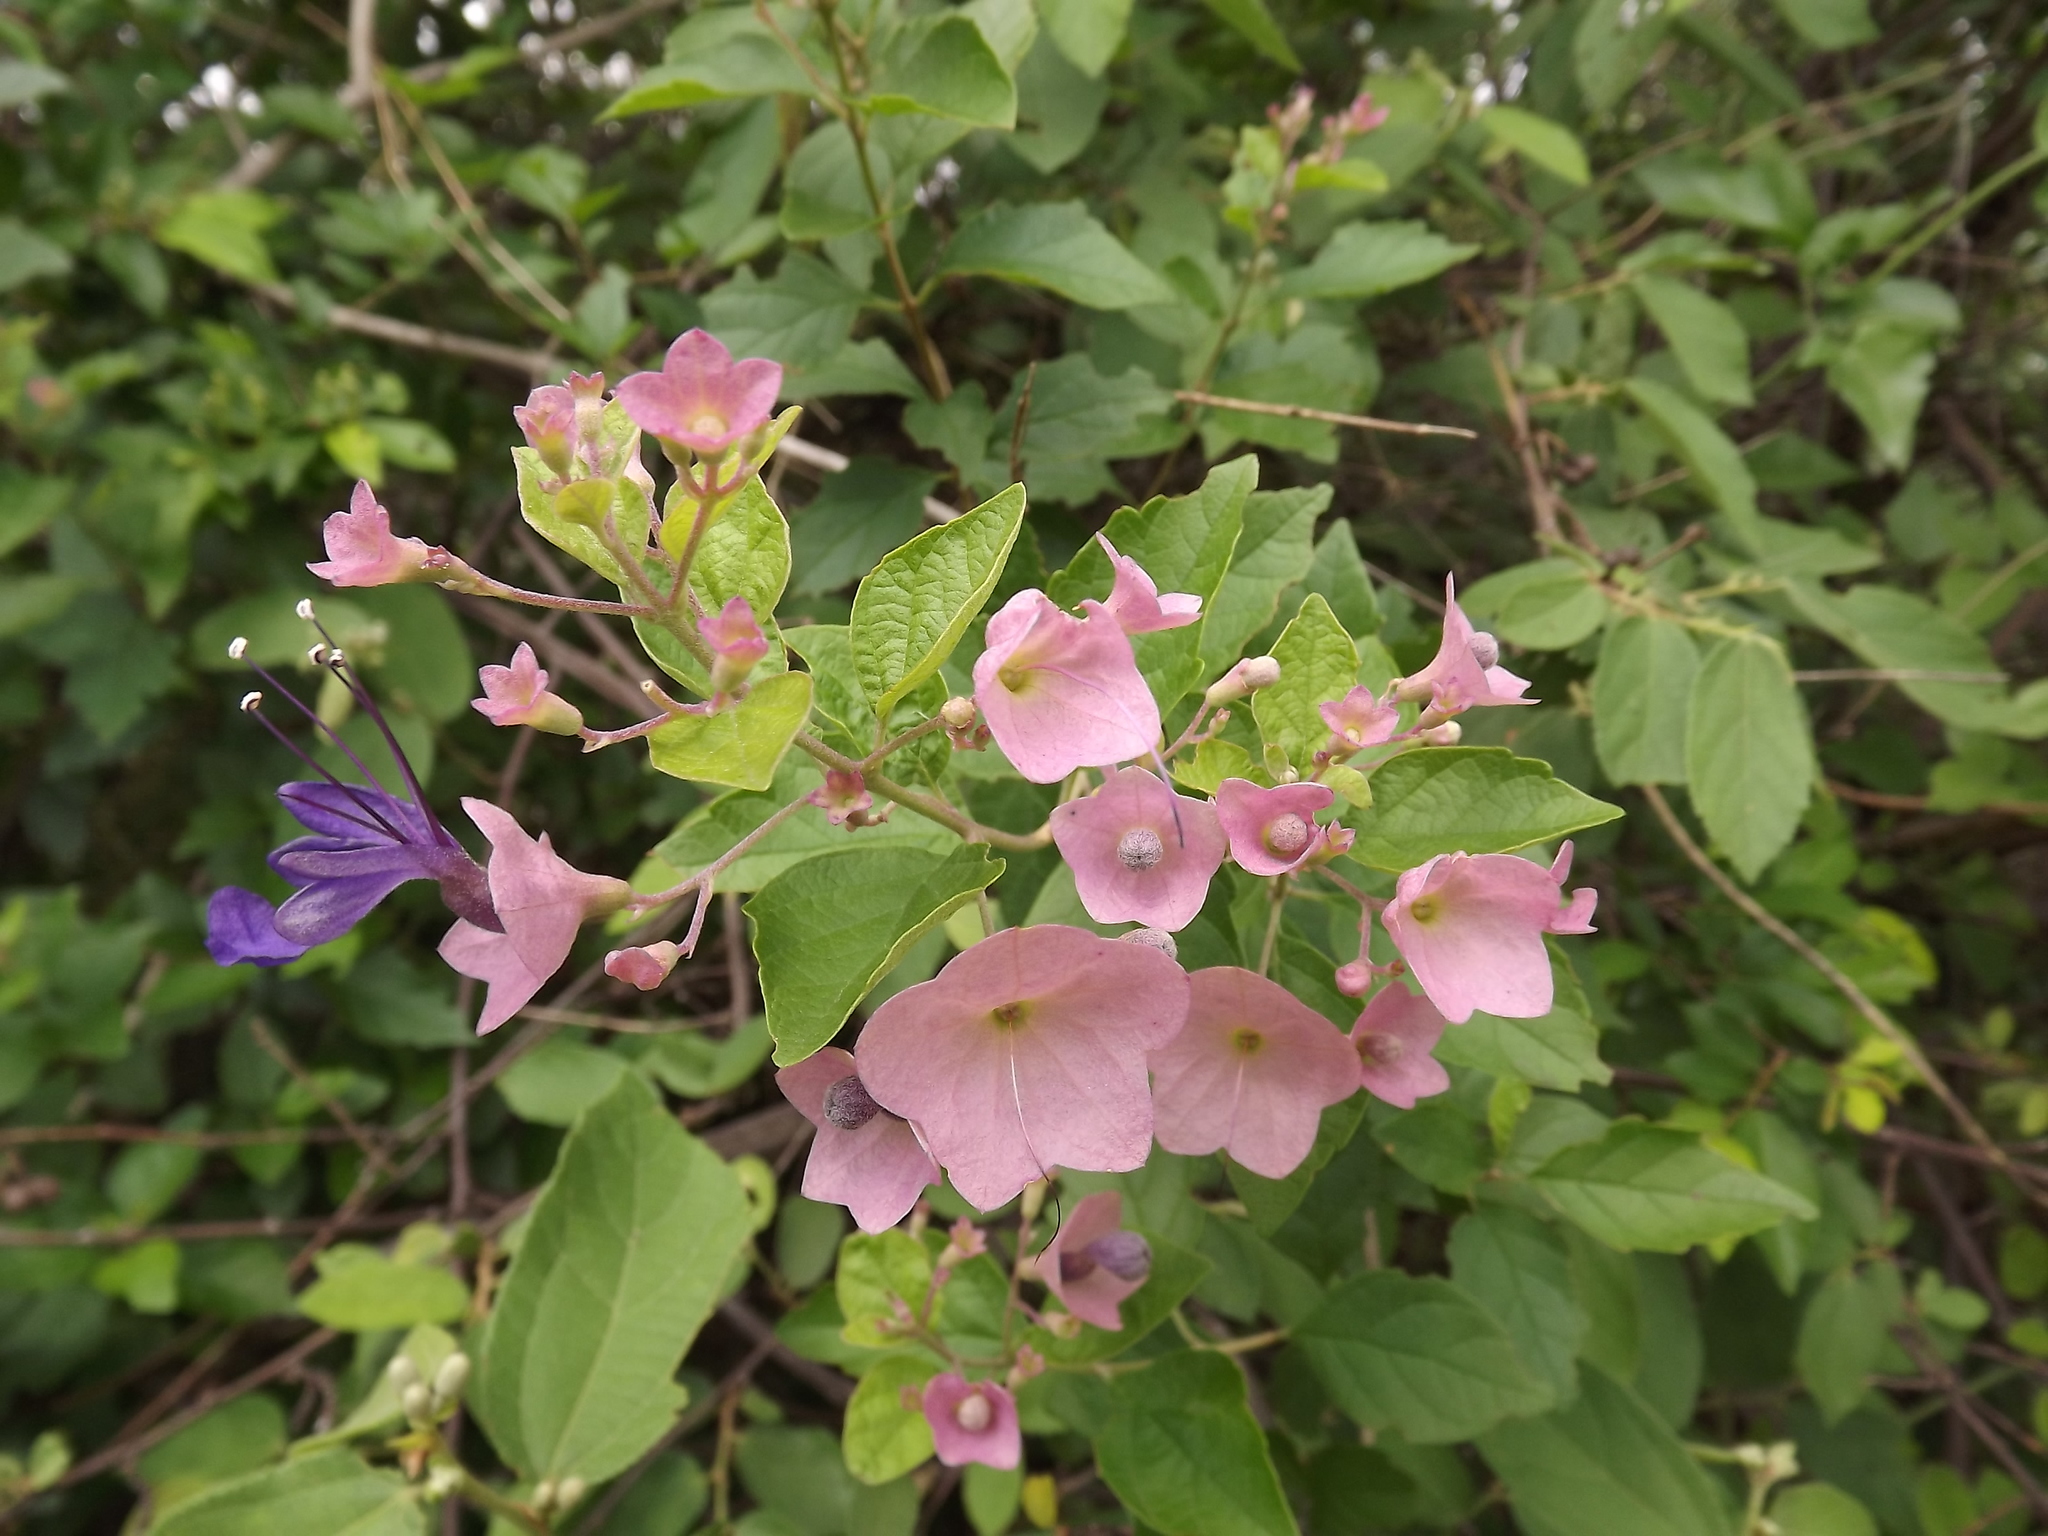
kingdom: Plantae
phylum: Tracheophyta
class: Magnoliopsida
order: Lamiales
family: Lamiaceae
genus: Karomia
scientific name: Karomia speciosa
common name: Southern chinese-hats
